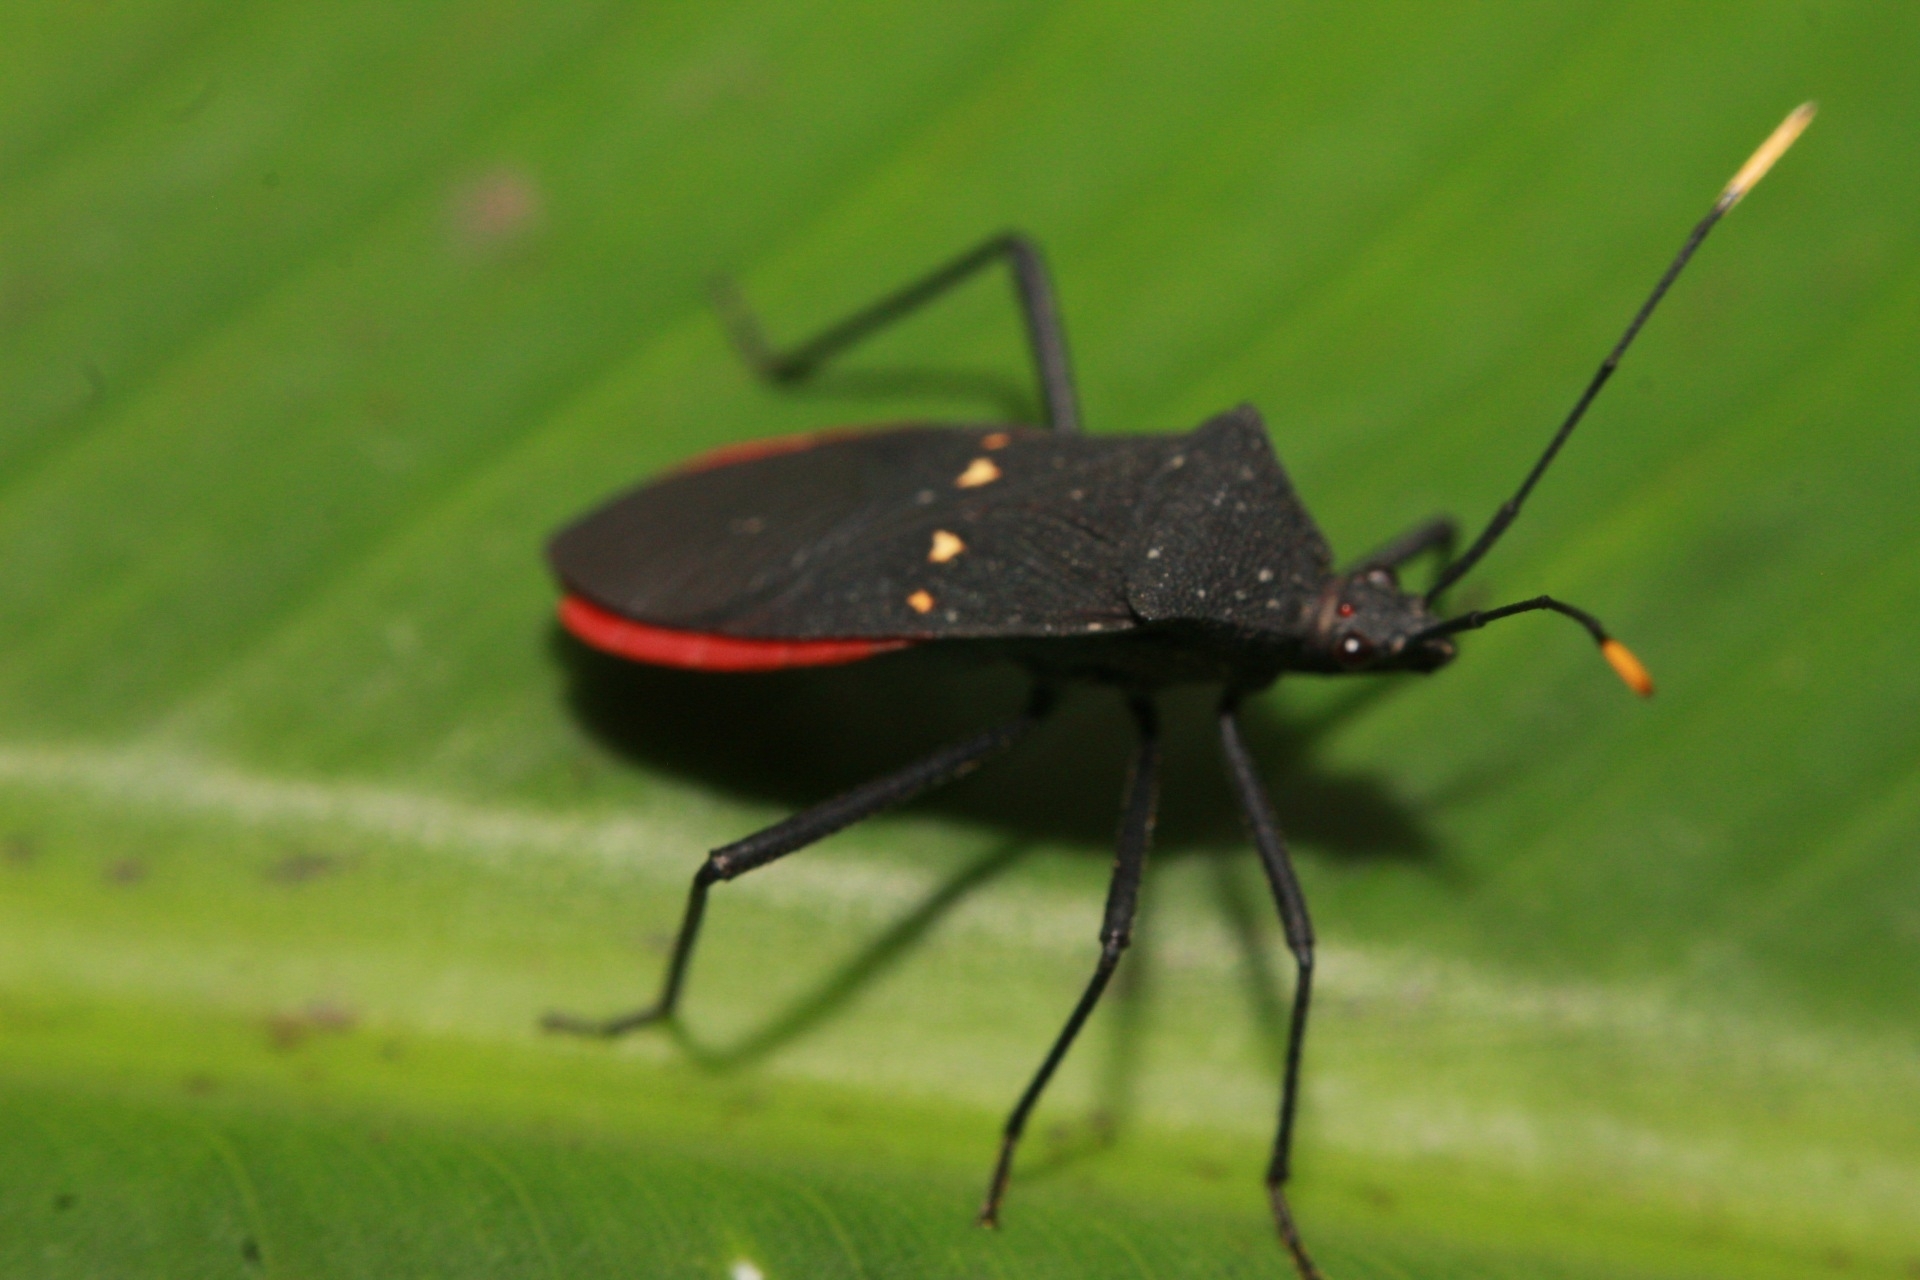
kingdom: Animalia
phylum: Arthropoda
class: Insecta
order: Hemiptera
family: Coreidae
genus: Leptoscelis
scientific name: Leptoscelis flaviventris
